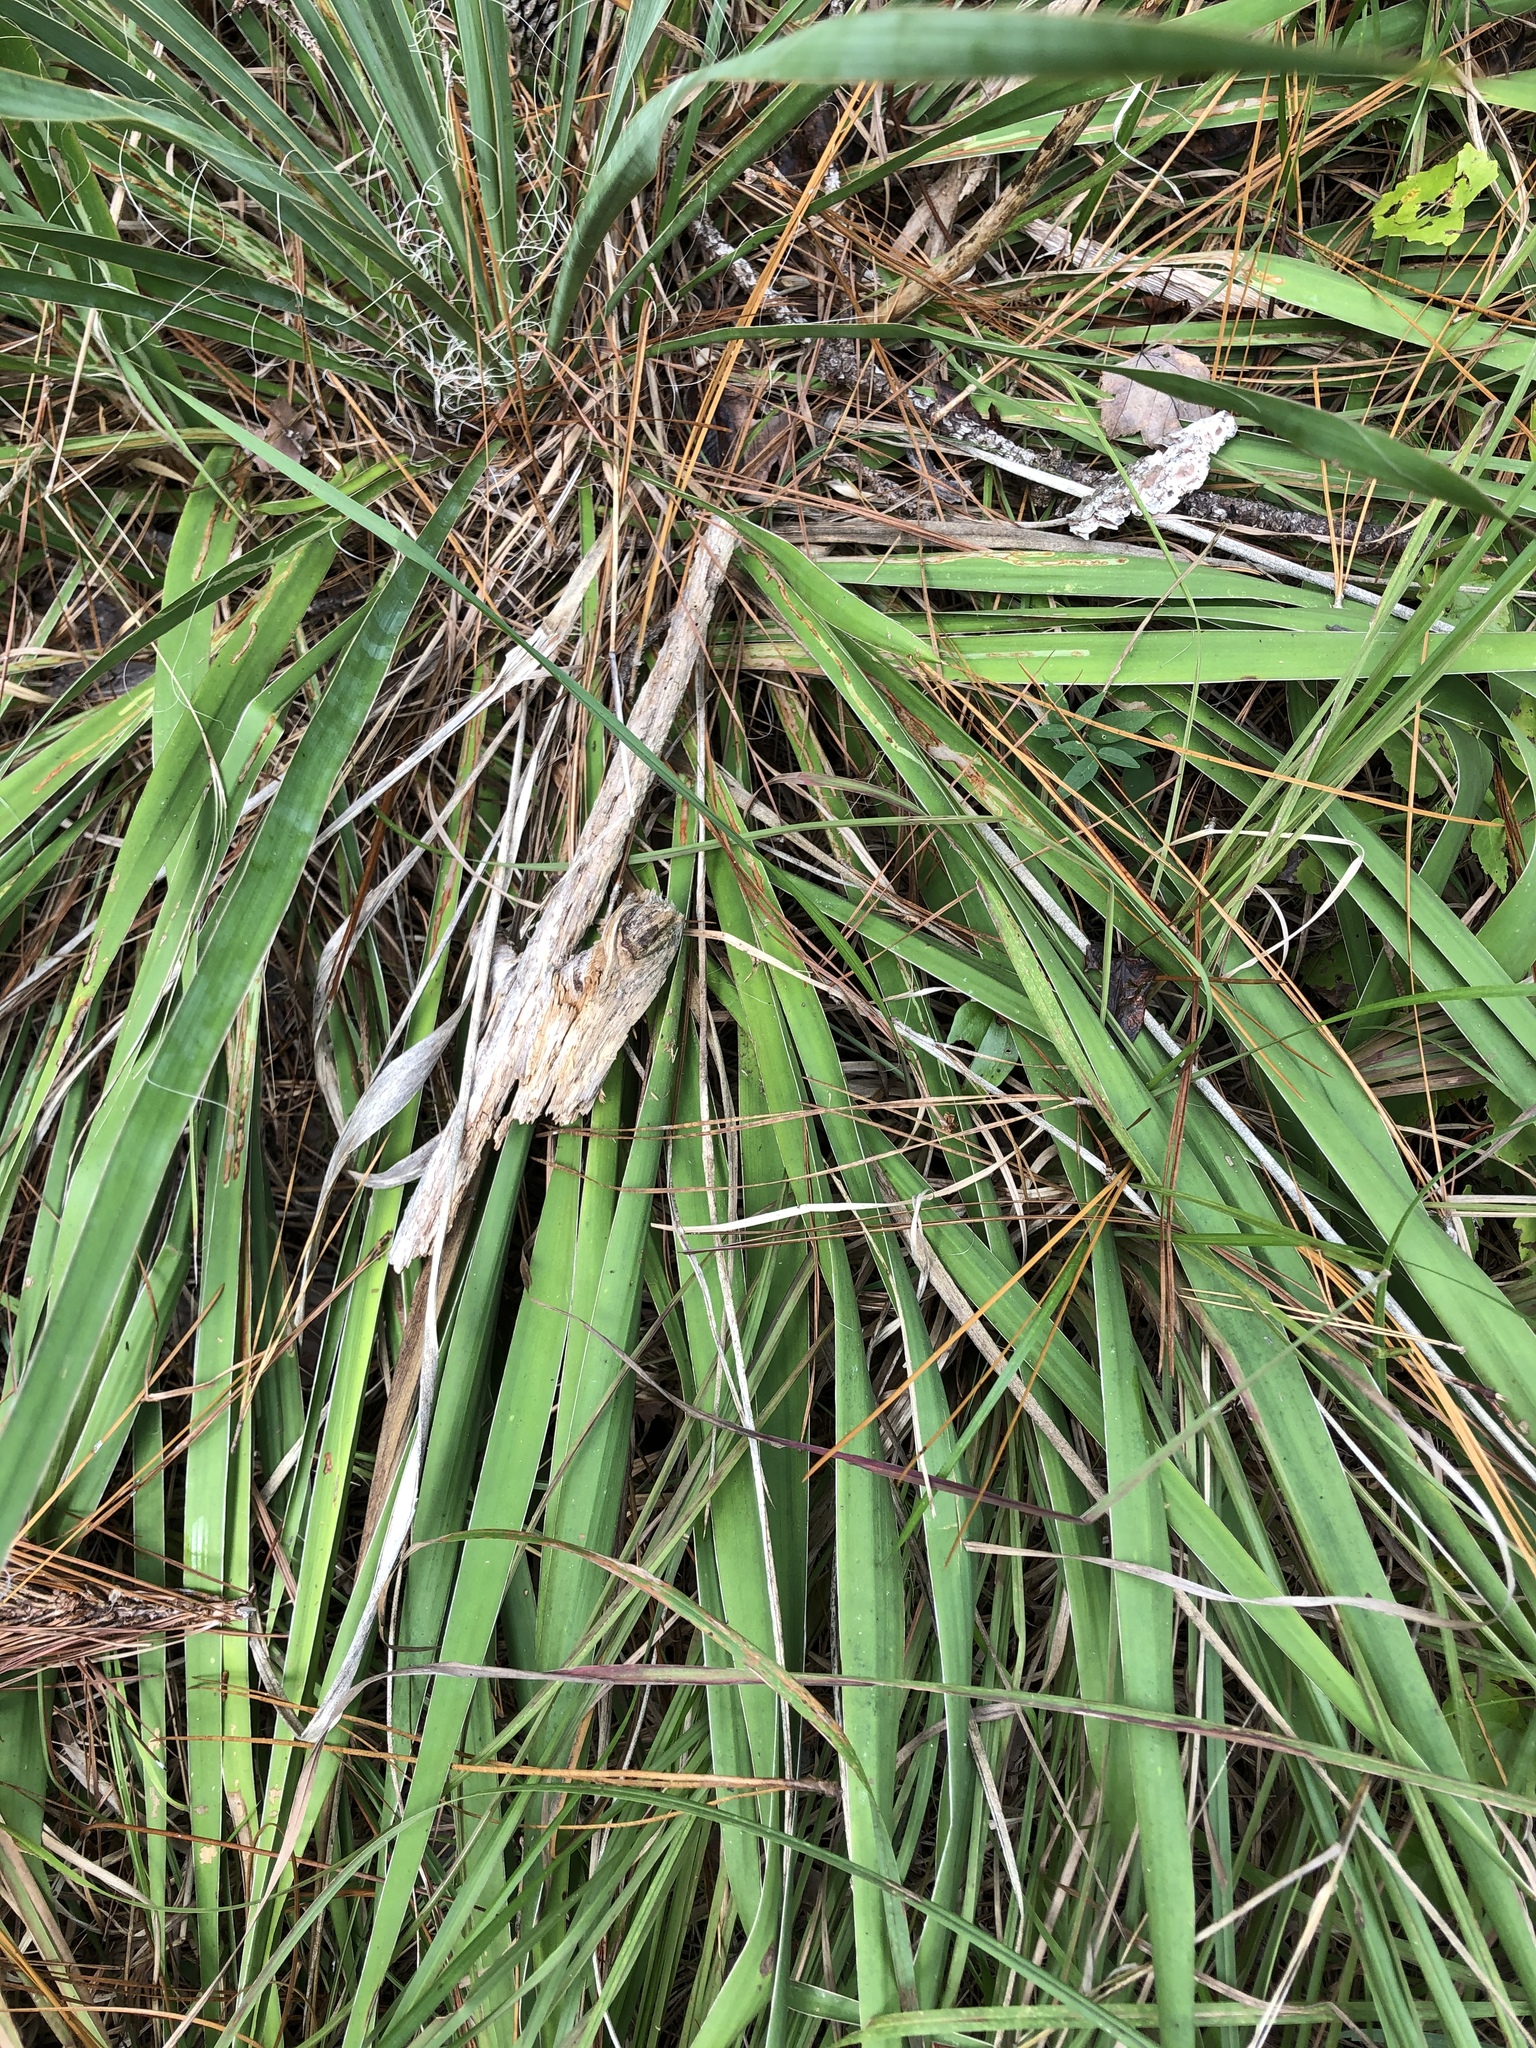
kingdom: Plantae
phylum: Tracheophyta
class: Liliopsida
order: Asparagales
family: Asparagaceae
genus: Yucca
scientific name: Yucca flaccida
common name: Adam's-needle
